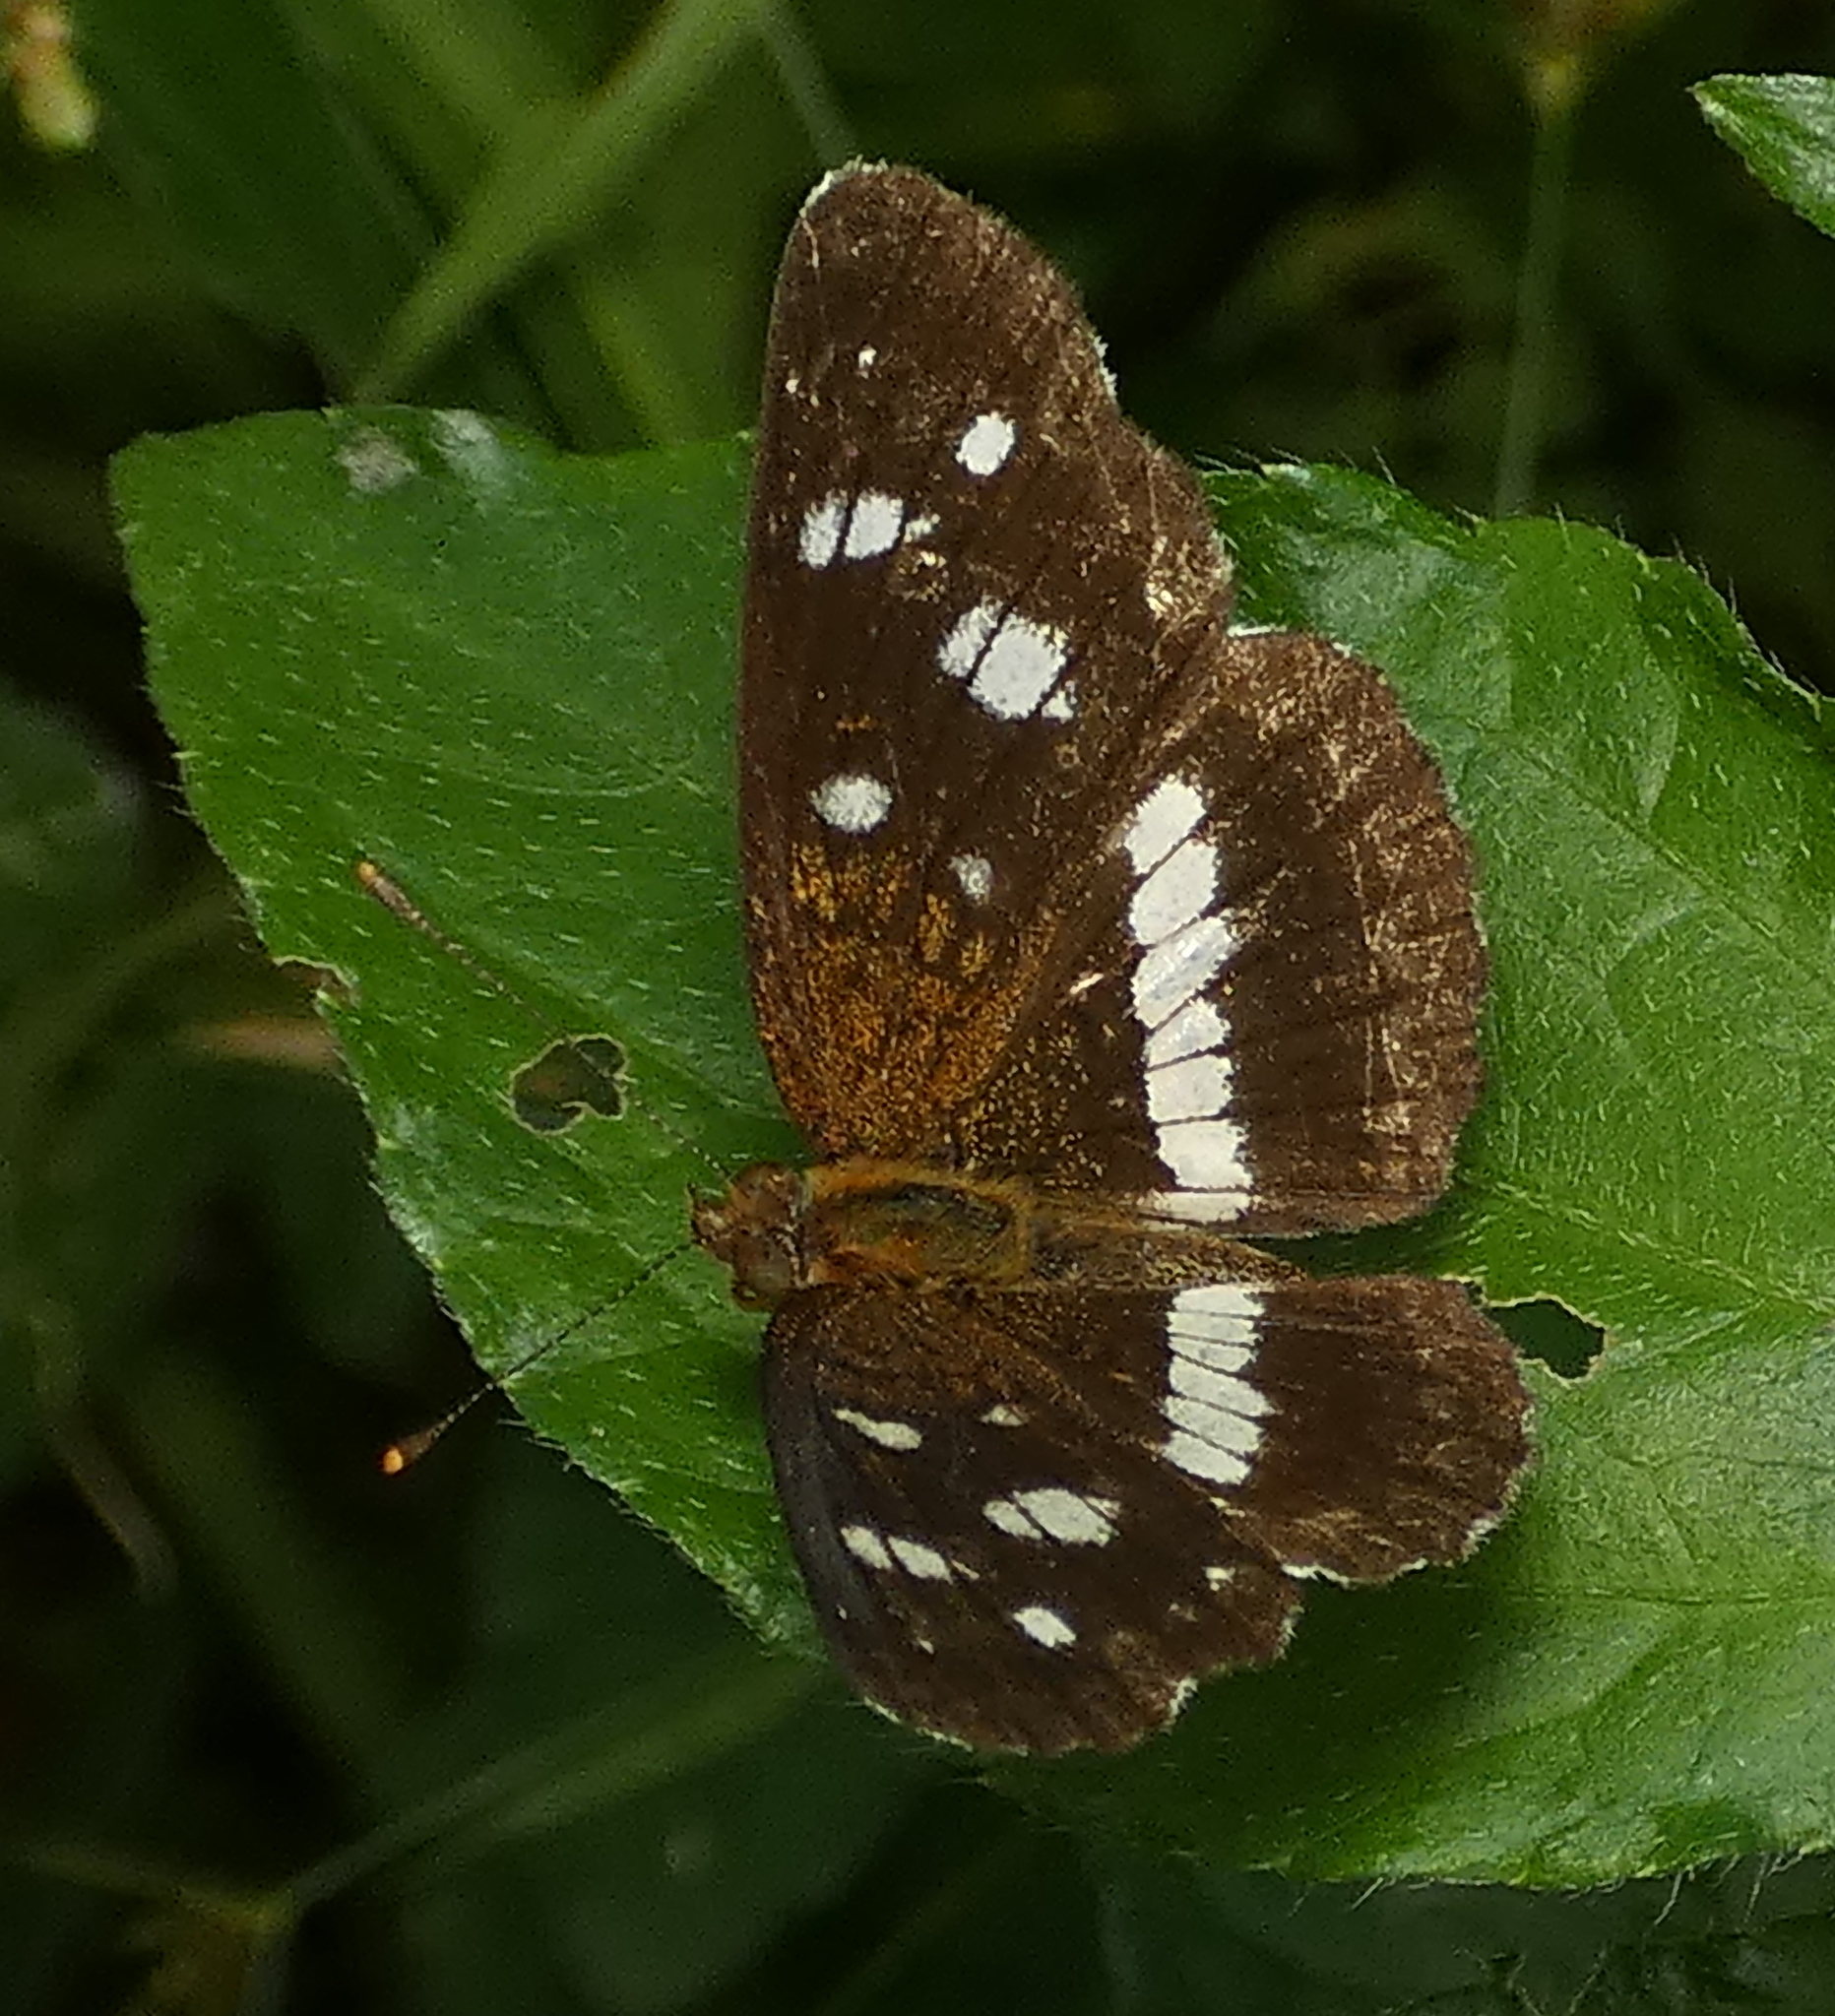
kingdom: Animalia
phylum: Arthropoda
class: Insecta
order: Lepidoptera
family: Nymphalidae
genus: Ortilia
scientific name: Ortilia ithra
